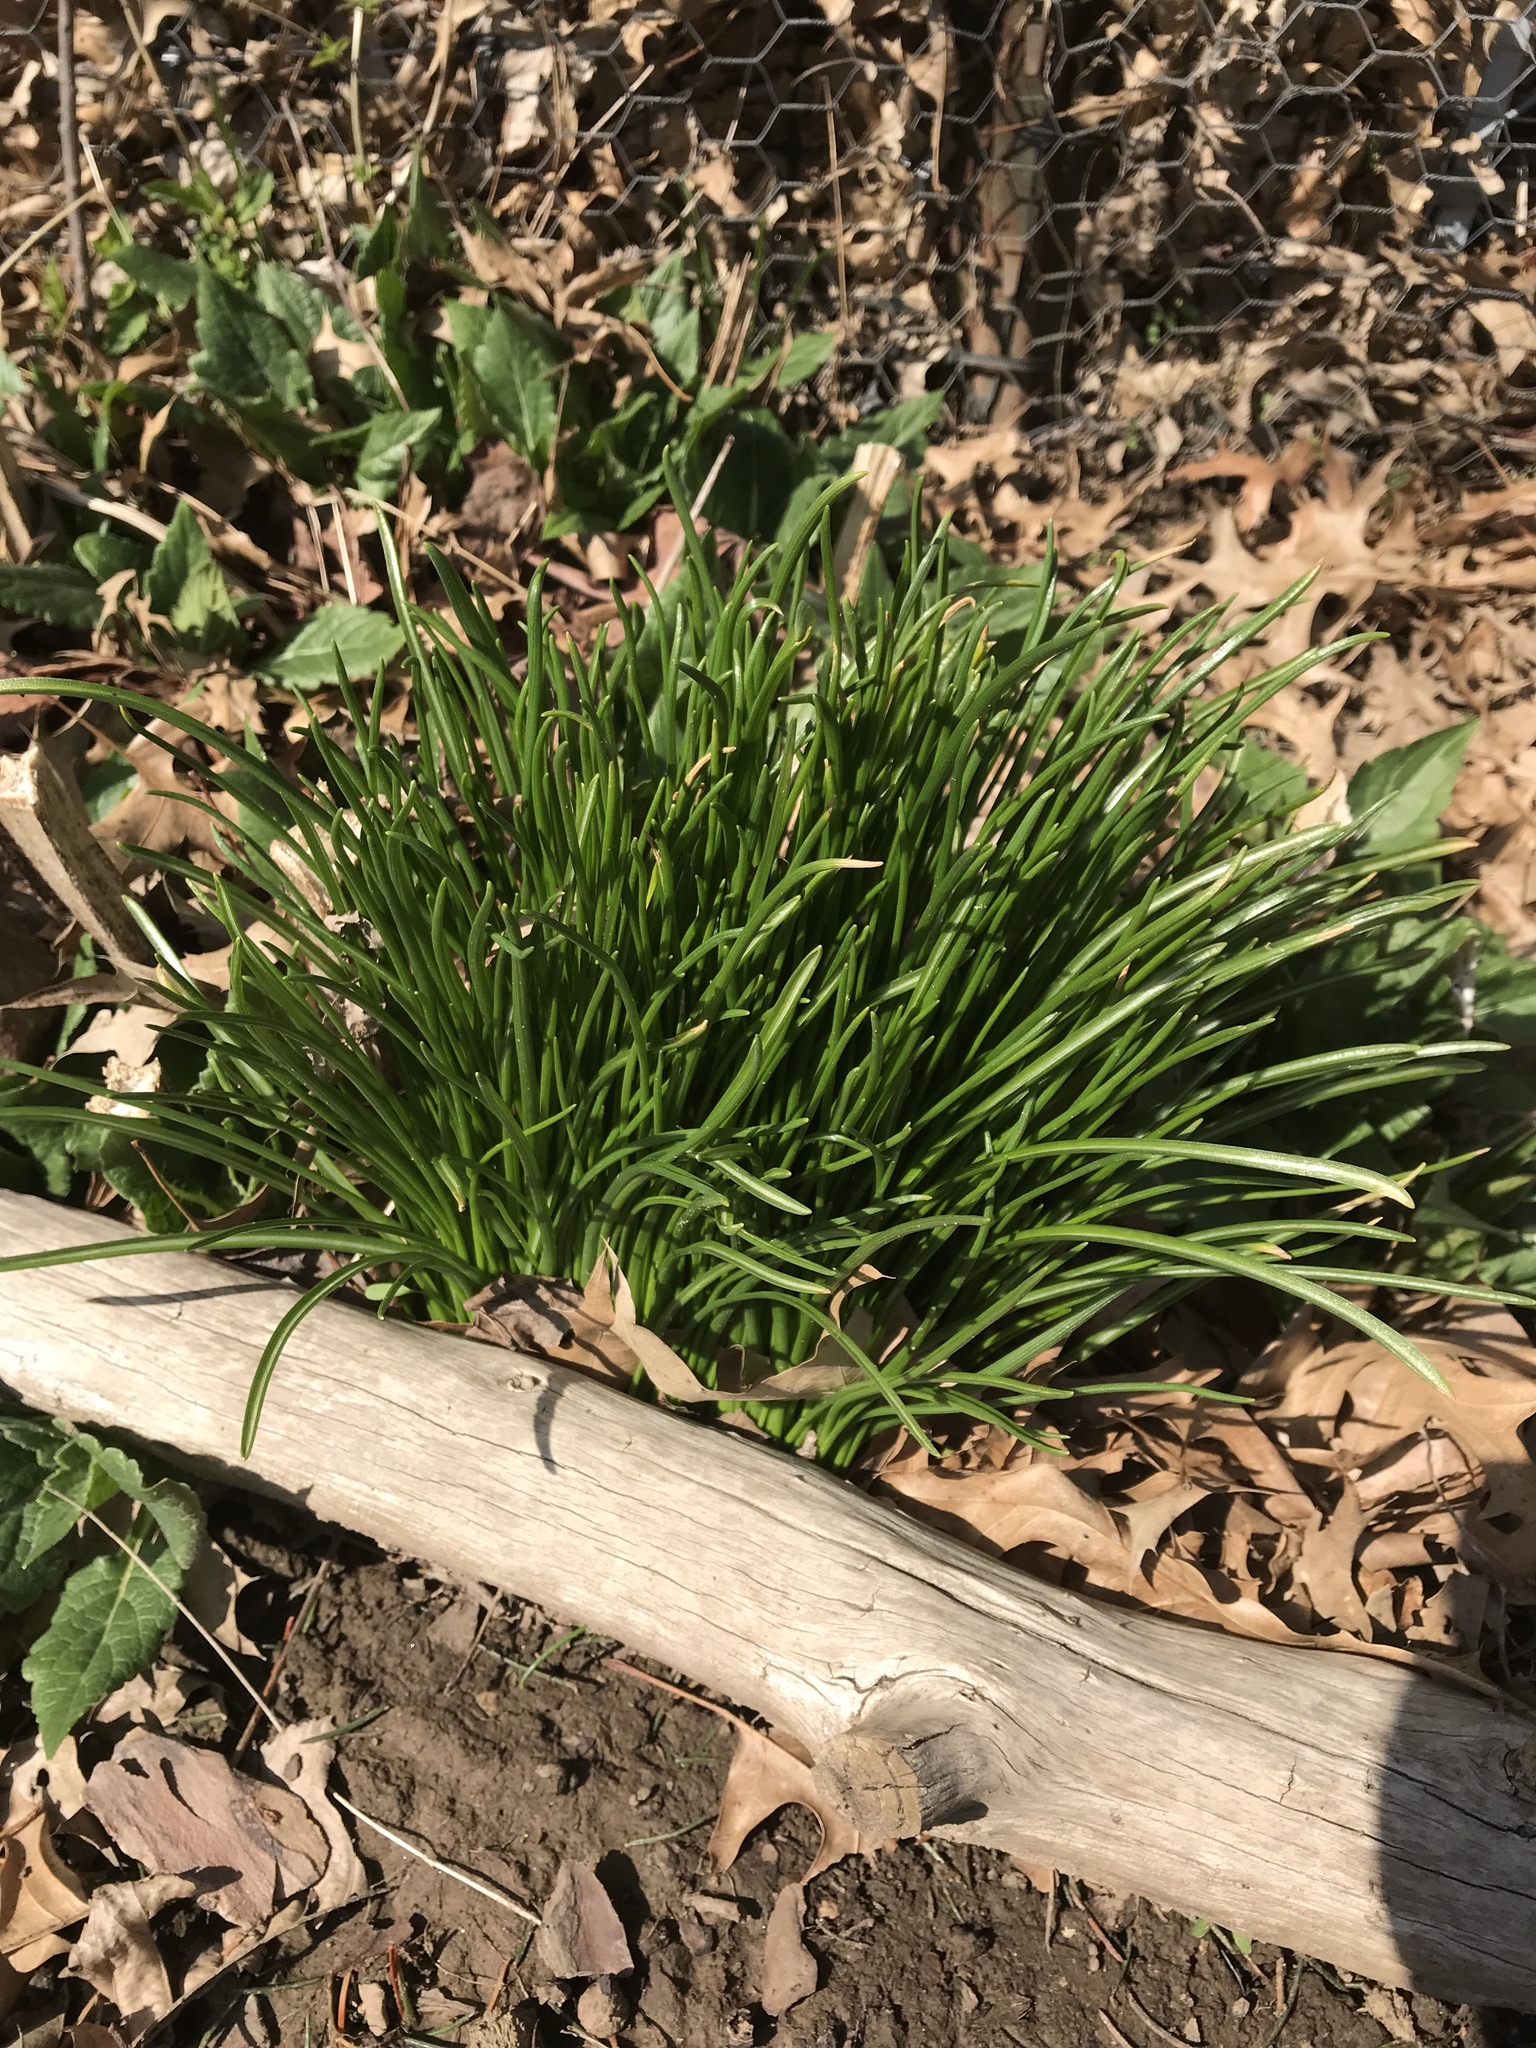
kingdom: Plantae
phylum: Tracheophyta
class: Liliopsida
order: Asparagales
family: Asparagaceae
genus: Ornithogalum
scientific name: Ornithogalum umbellatum
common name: Garden star-of-bethlehem
